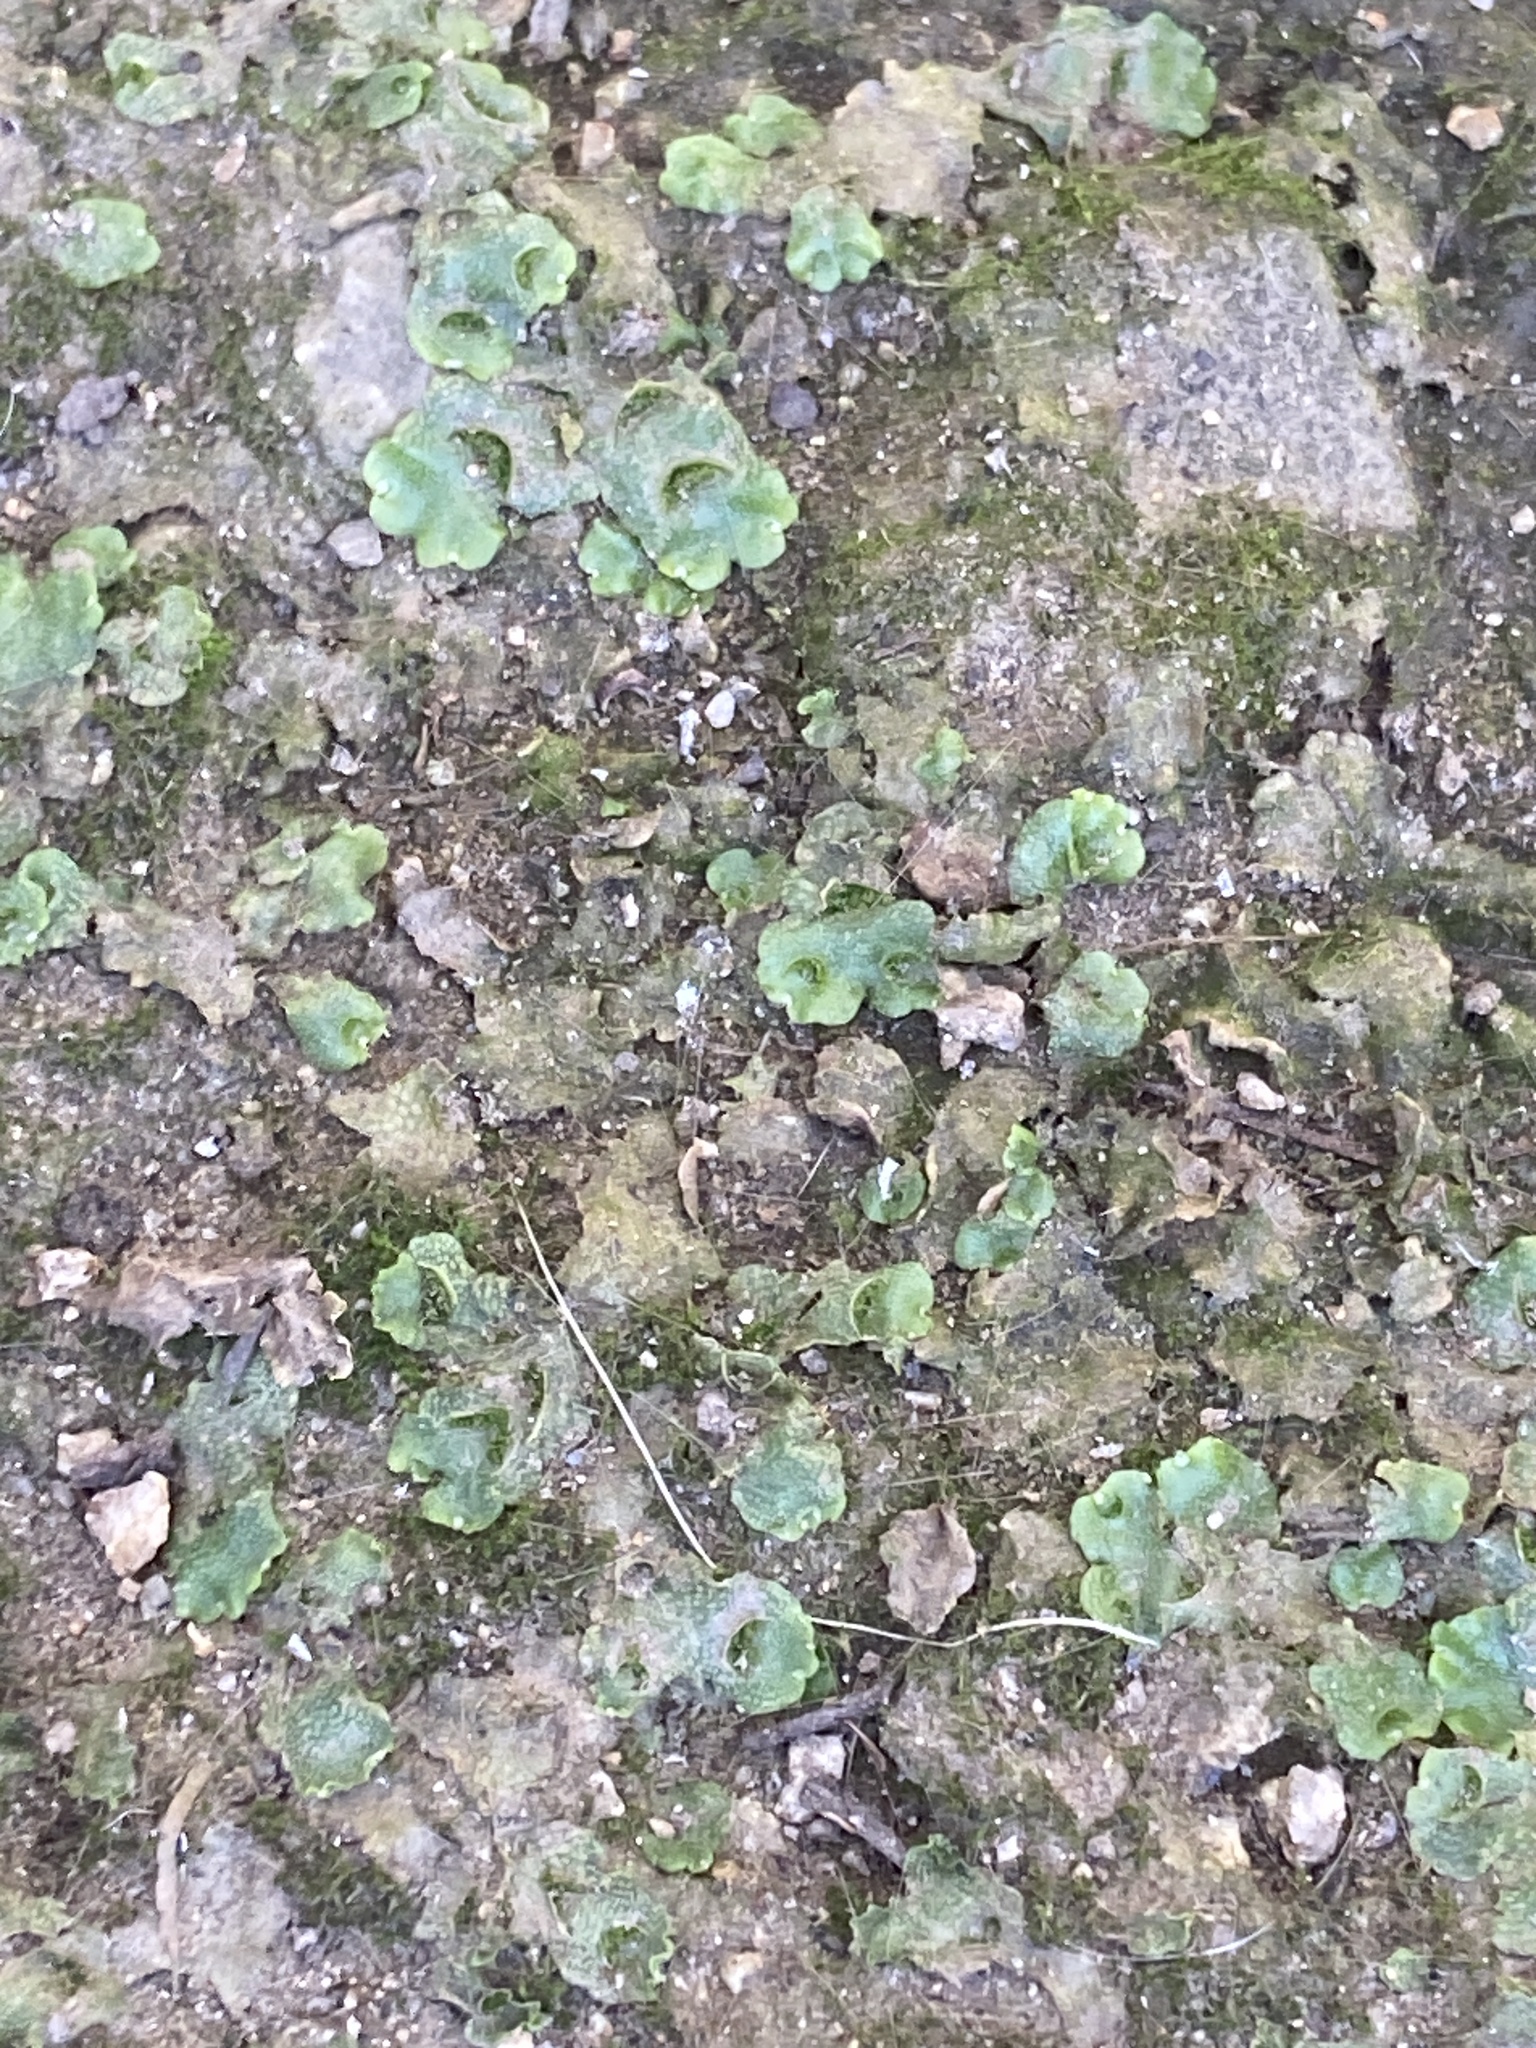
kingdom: Plantae
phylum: Marchantiophyta
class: Marchantiopsida
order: Lunulariales
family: Lunulariaceae
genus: Lunularia
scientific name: Lunularia cruciata
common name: Crescent-cup liverwort
